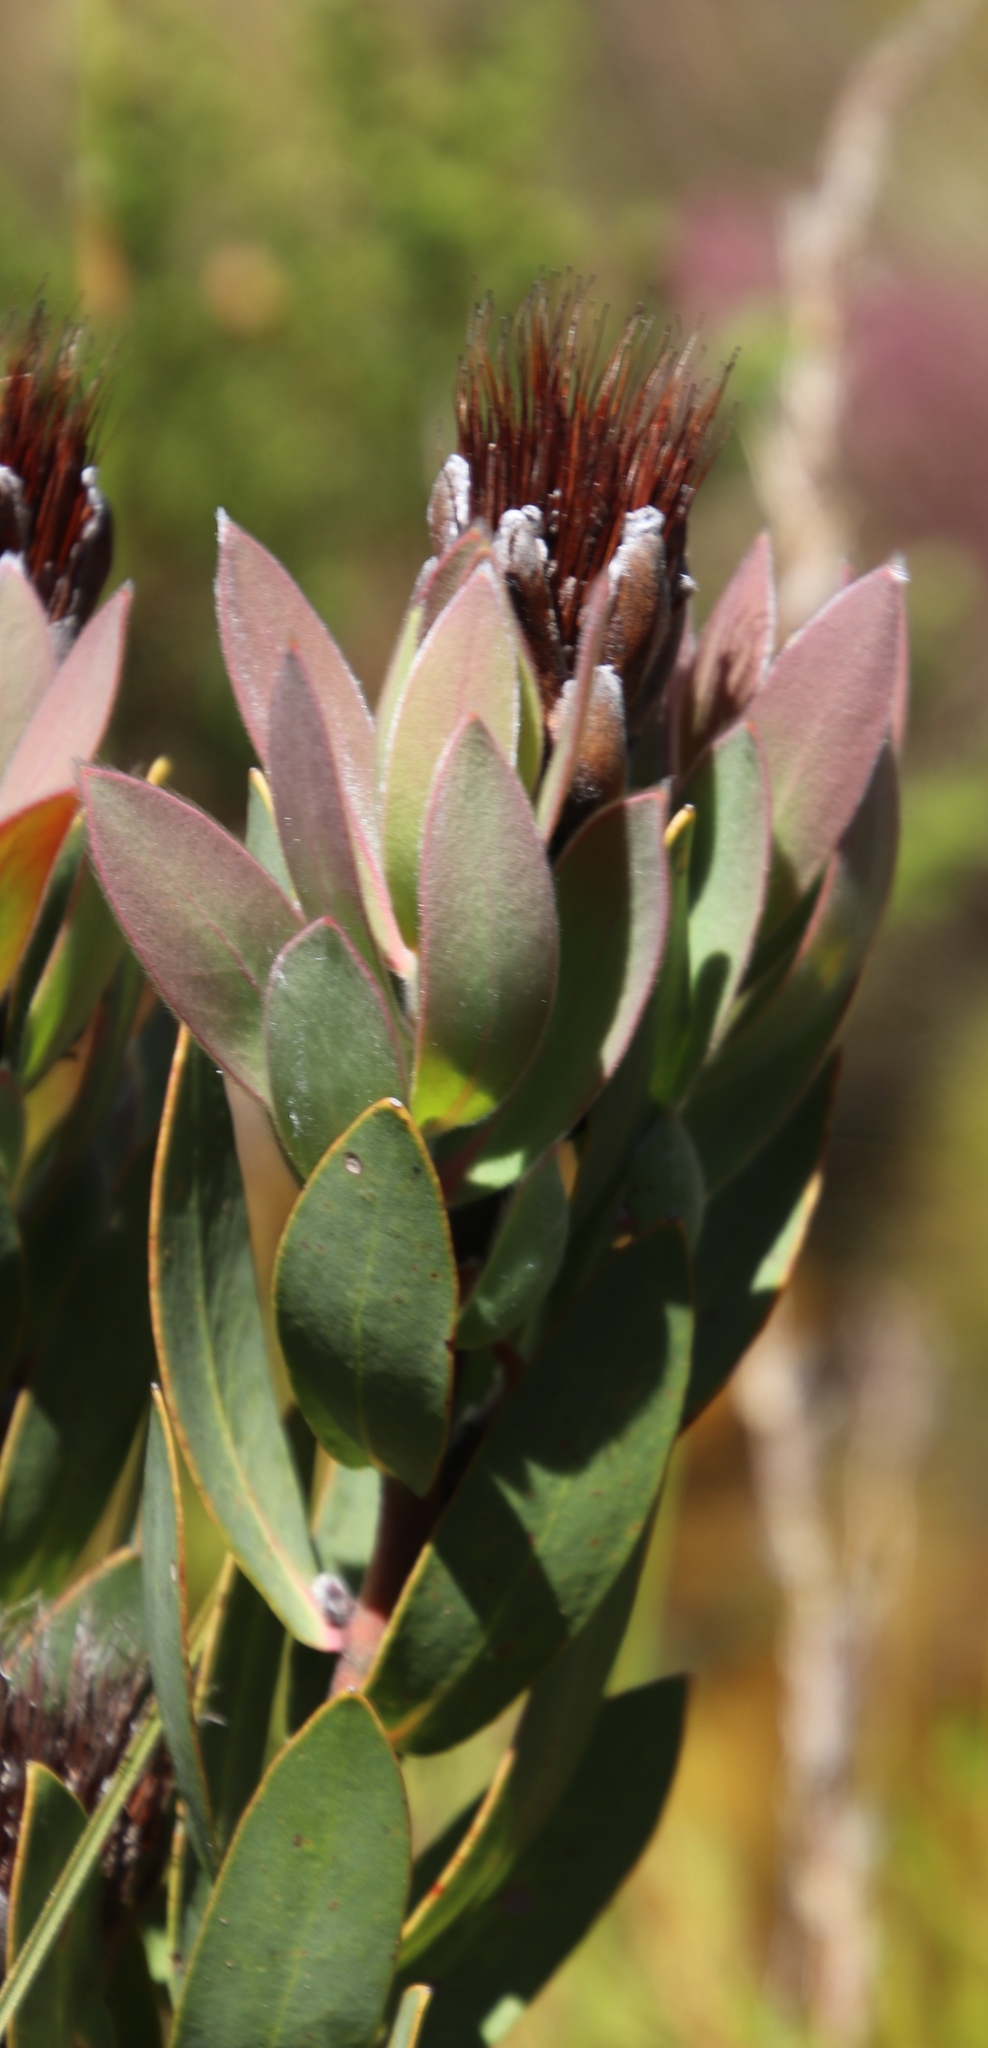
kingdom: Plantae
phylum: Tracheophyta
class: Magnoliopsida
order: Proteales
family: Proteaceae
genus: Protea
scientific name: Protea lacticolor
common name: Hottentot sugarbush
